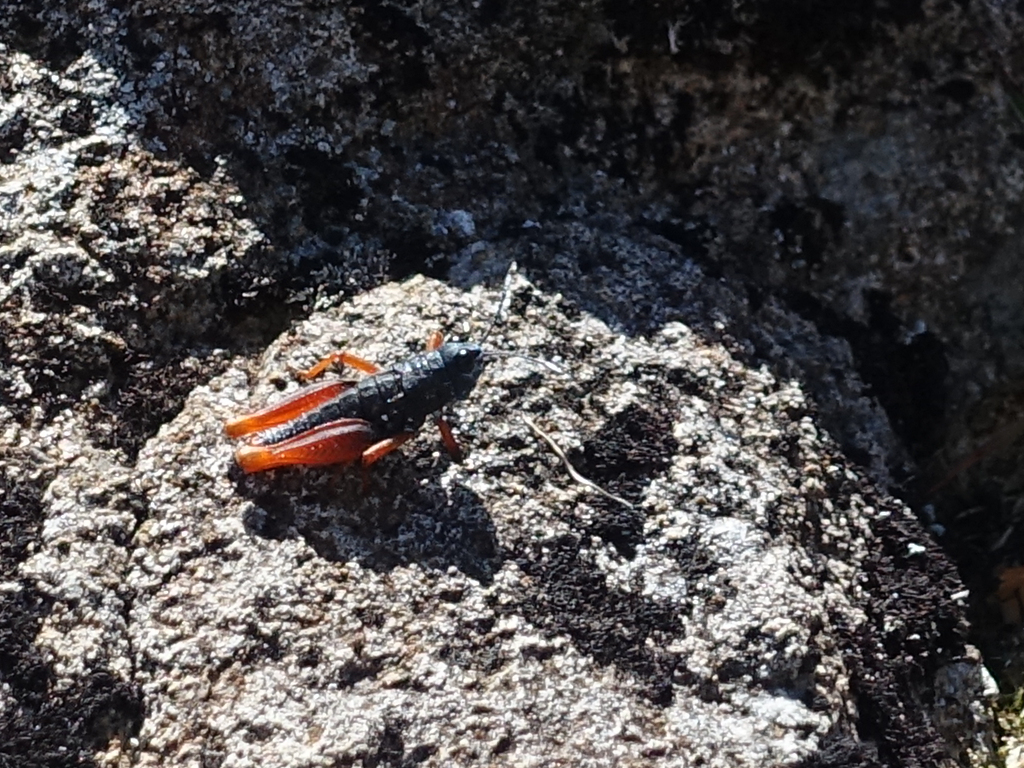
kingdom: Animalia
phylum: Arthropoda
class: Insecta
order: Orthoptera
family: Acrididae
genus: Tasmanalpina
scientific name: Tasmanalpina clavata
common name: Tasmanian velvet grasshopper
